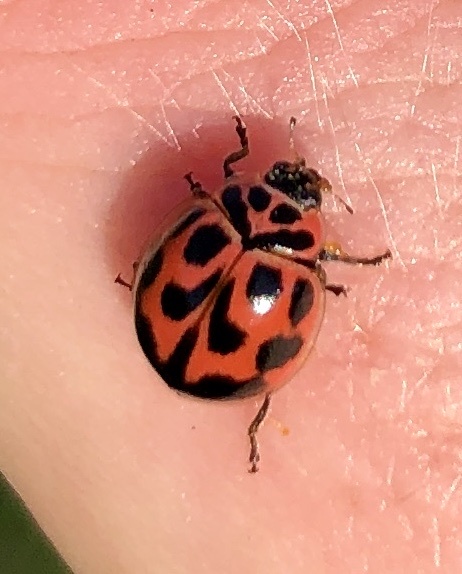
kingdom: Animalia
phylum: Arthropoda
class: Insecta
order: Coleoptera
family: Coccinellidae
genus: Neoharmonia
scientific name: Neoharmonia venusta
